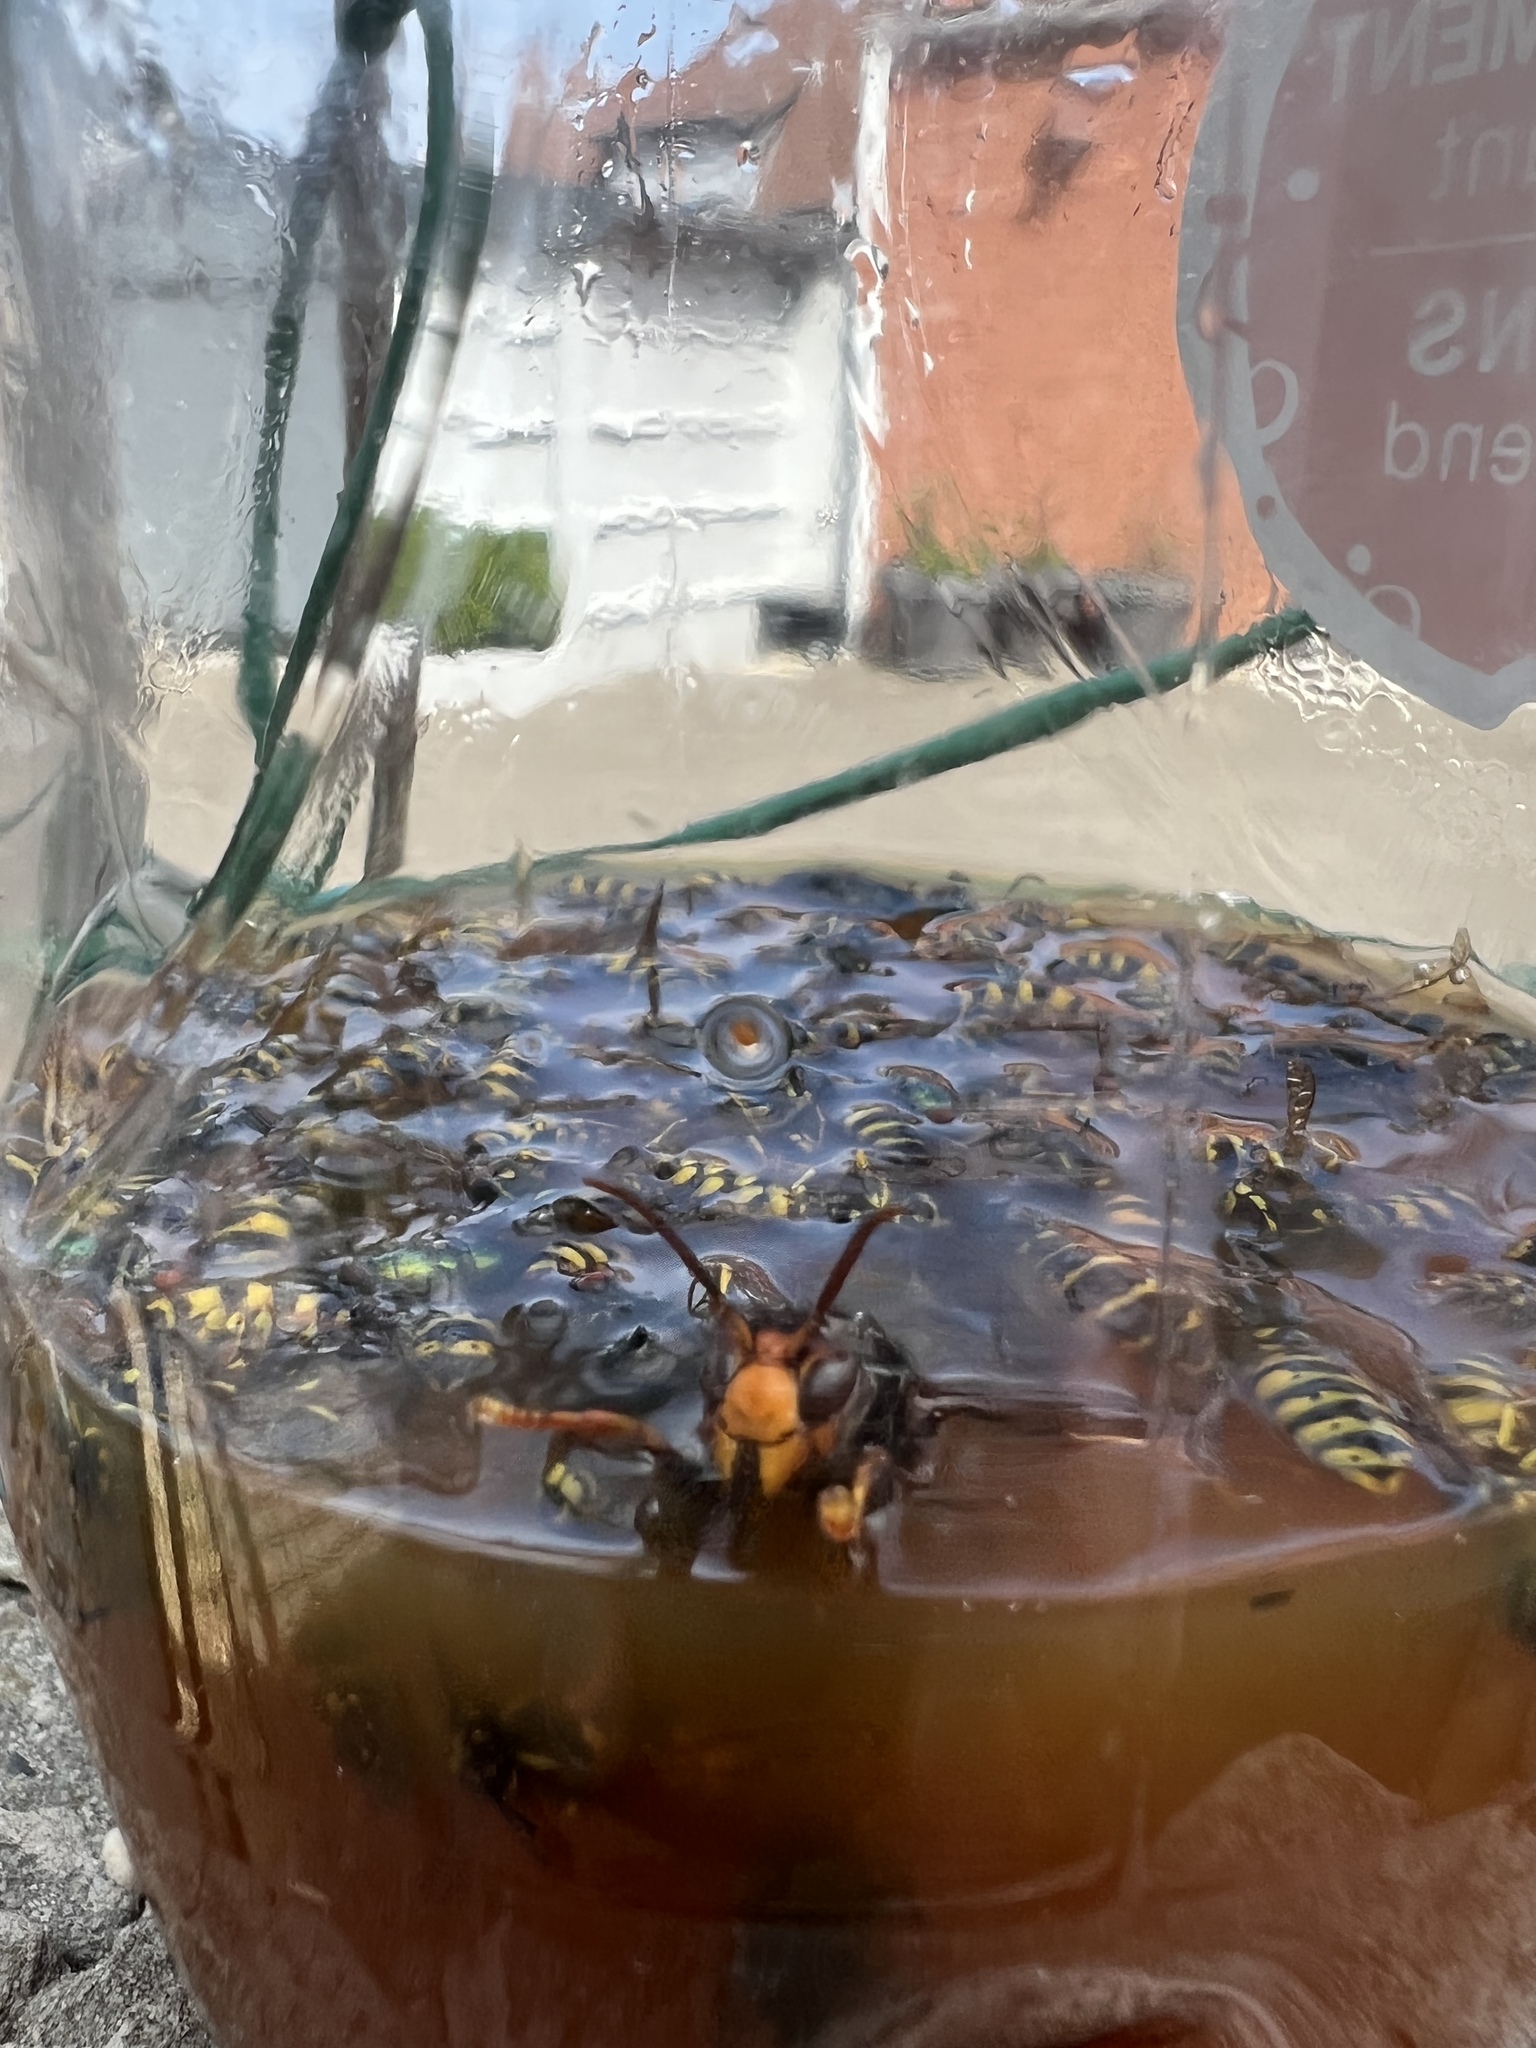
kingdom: Animalia
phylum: Arthropoda
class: Insecta
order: Hymenoptera
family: Vespidae
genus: Vespa
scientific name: Vespa velutina
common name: Asian hornet
